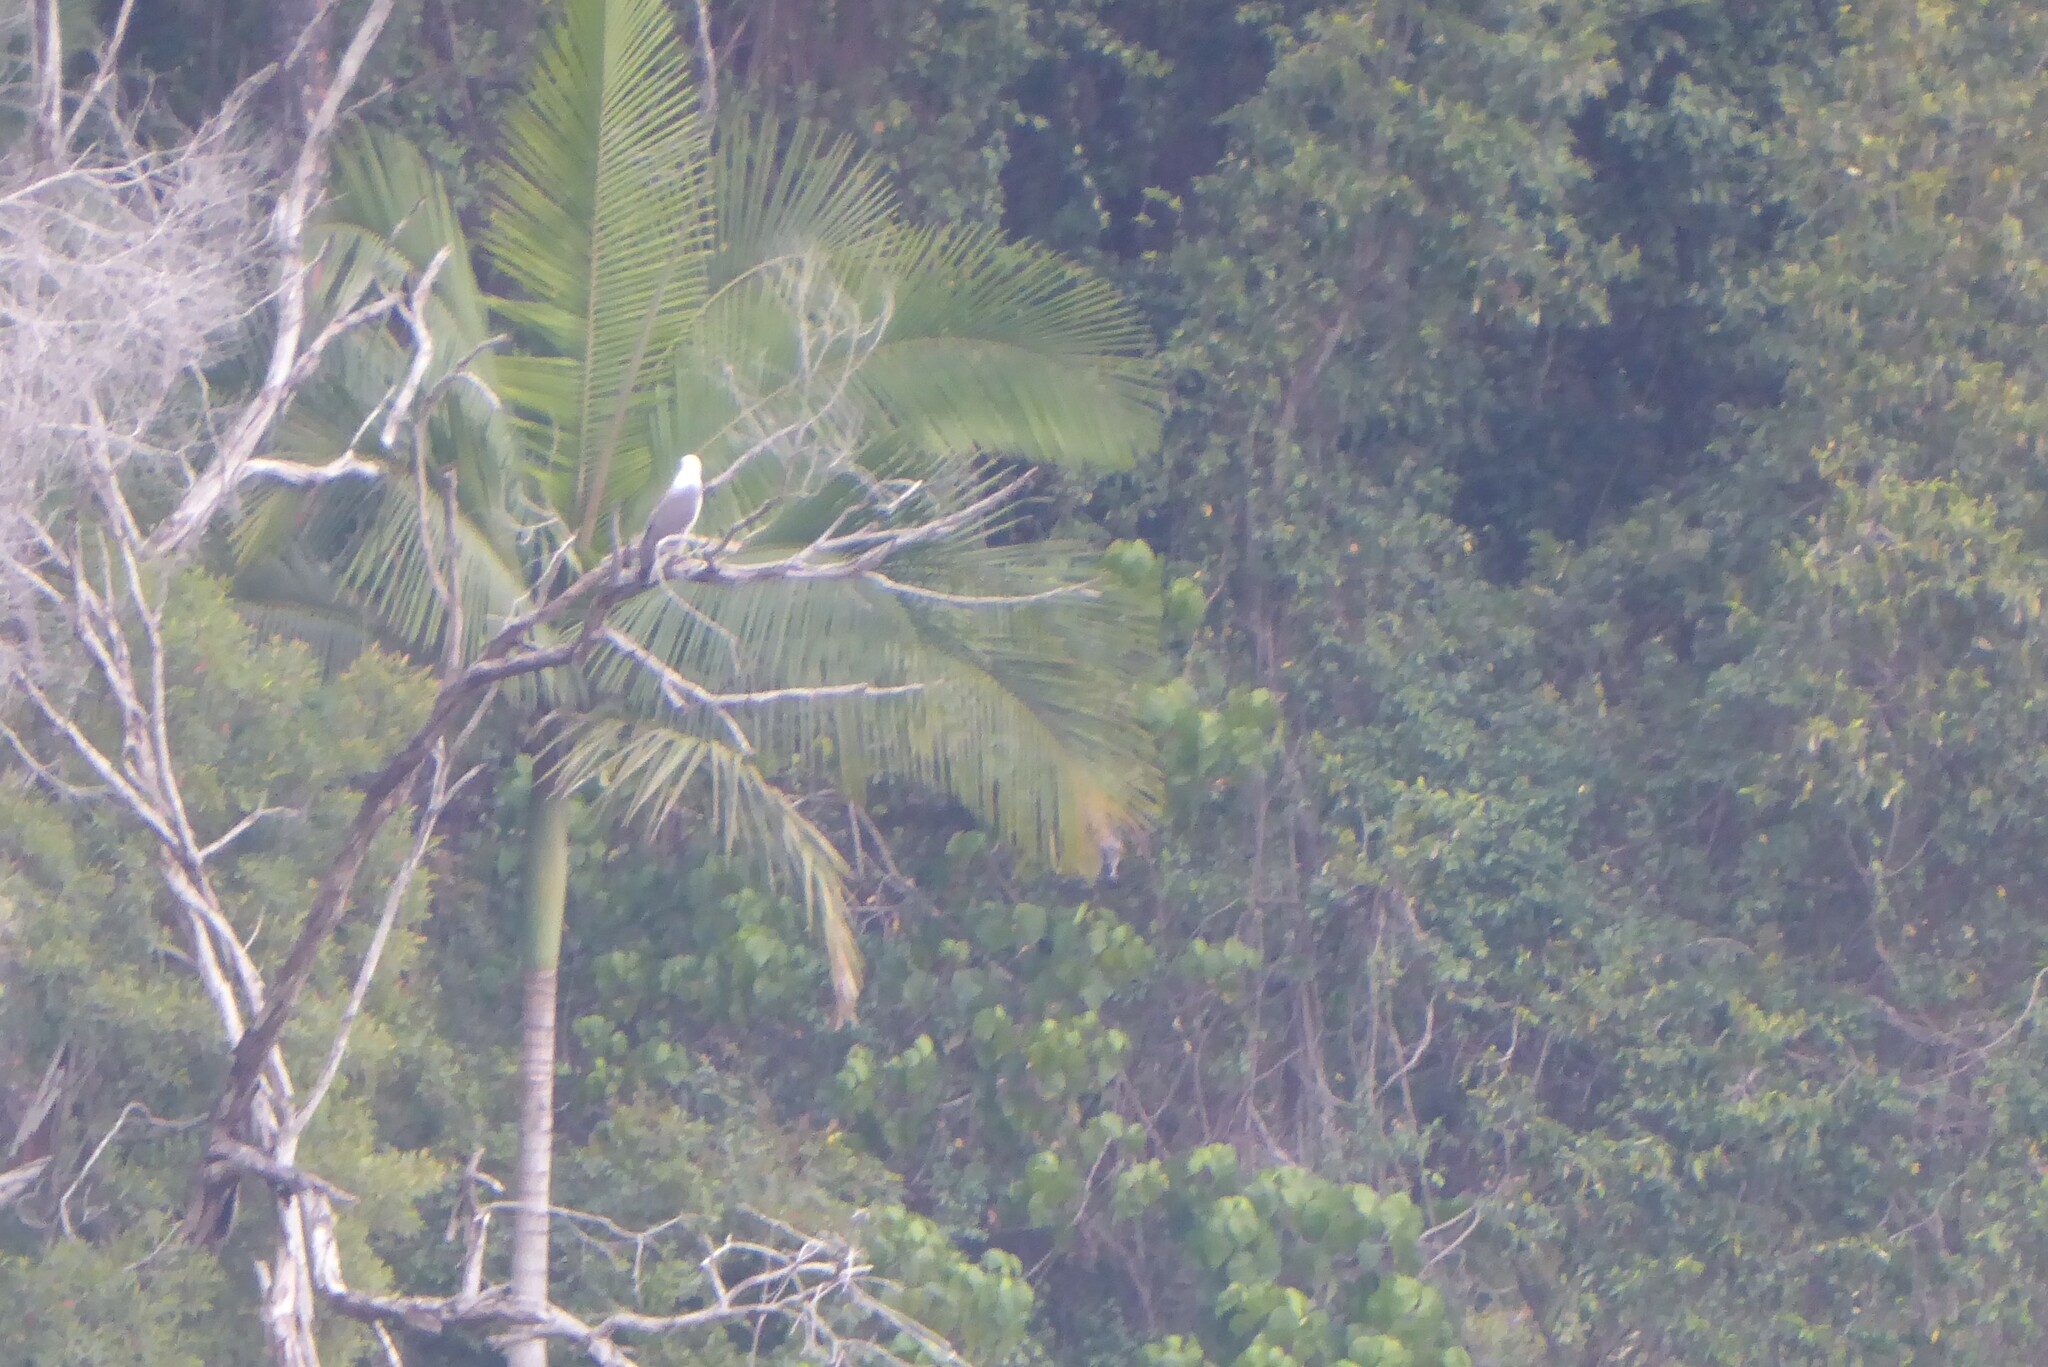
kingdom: Animalia
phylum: Chordata
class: Aves
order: Accipitriformes
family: Accipitridae
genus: Haliaeetus
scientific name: Haliaeetus leucogaster
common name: White-bellied sea eagle
